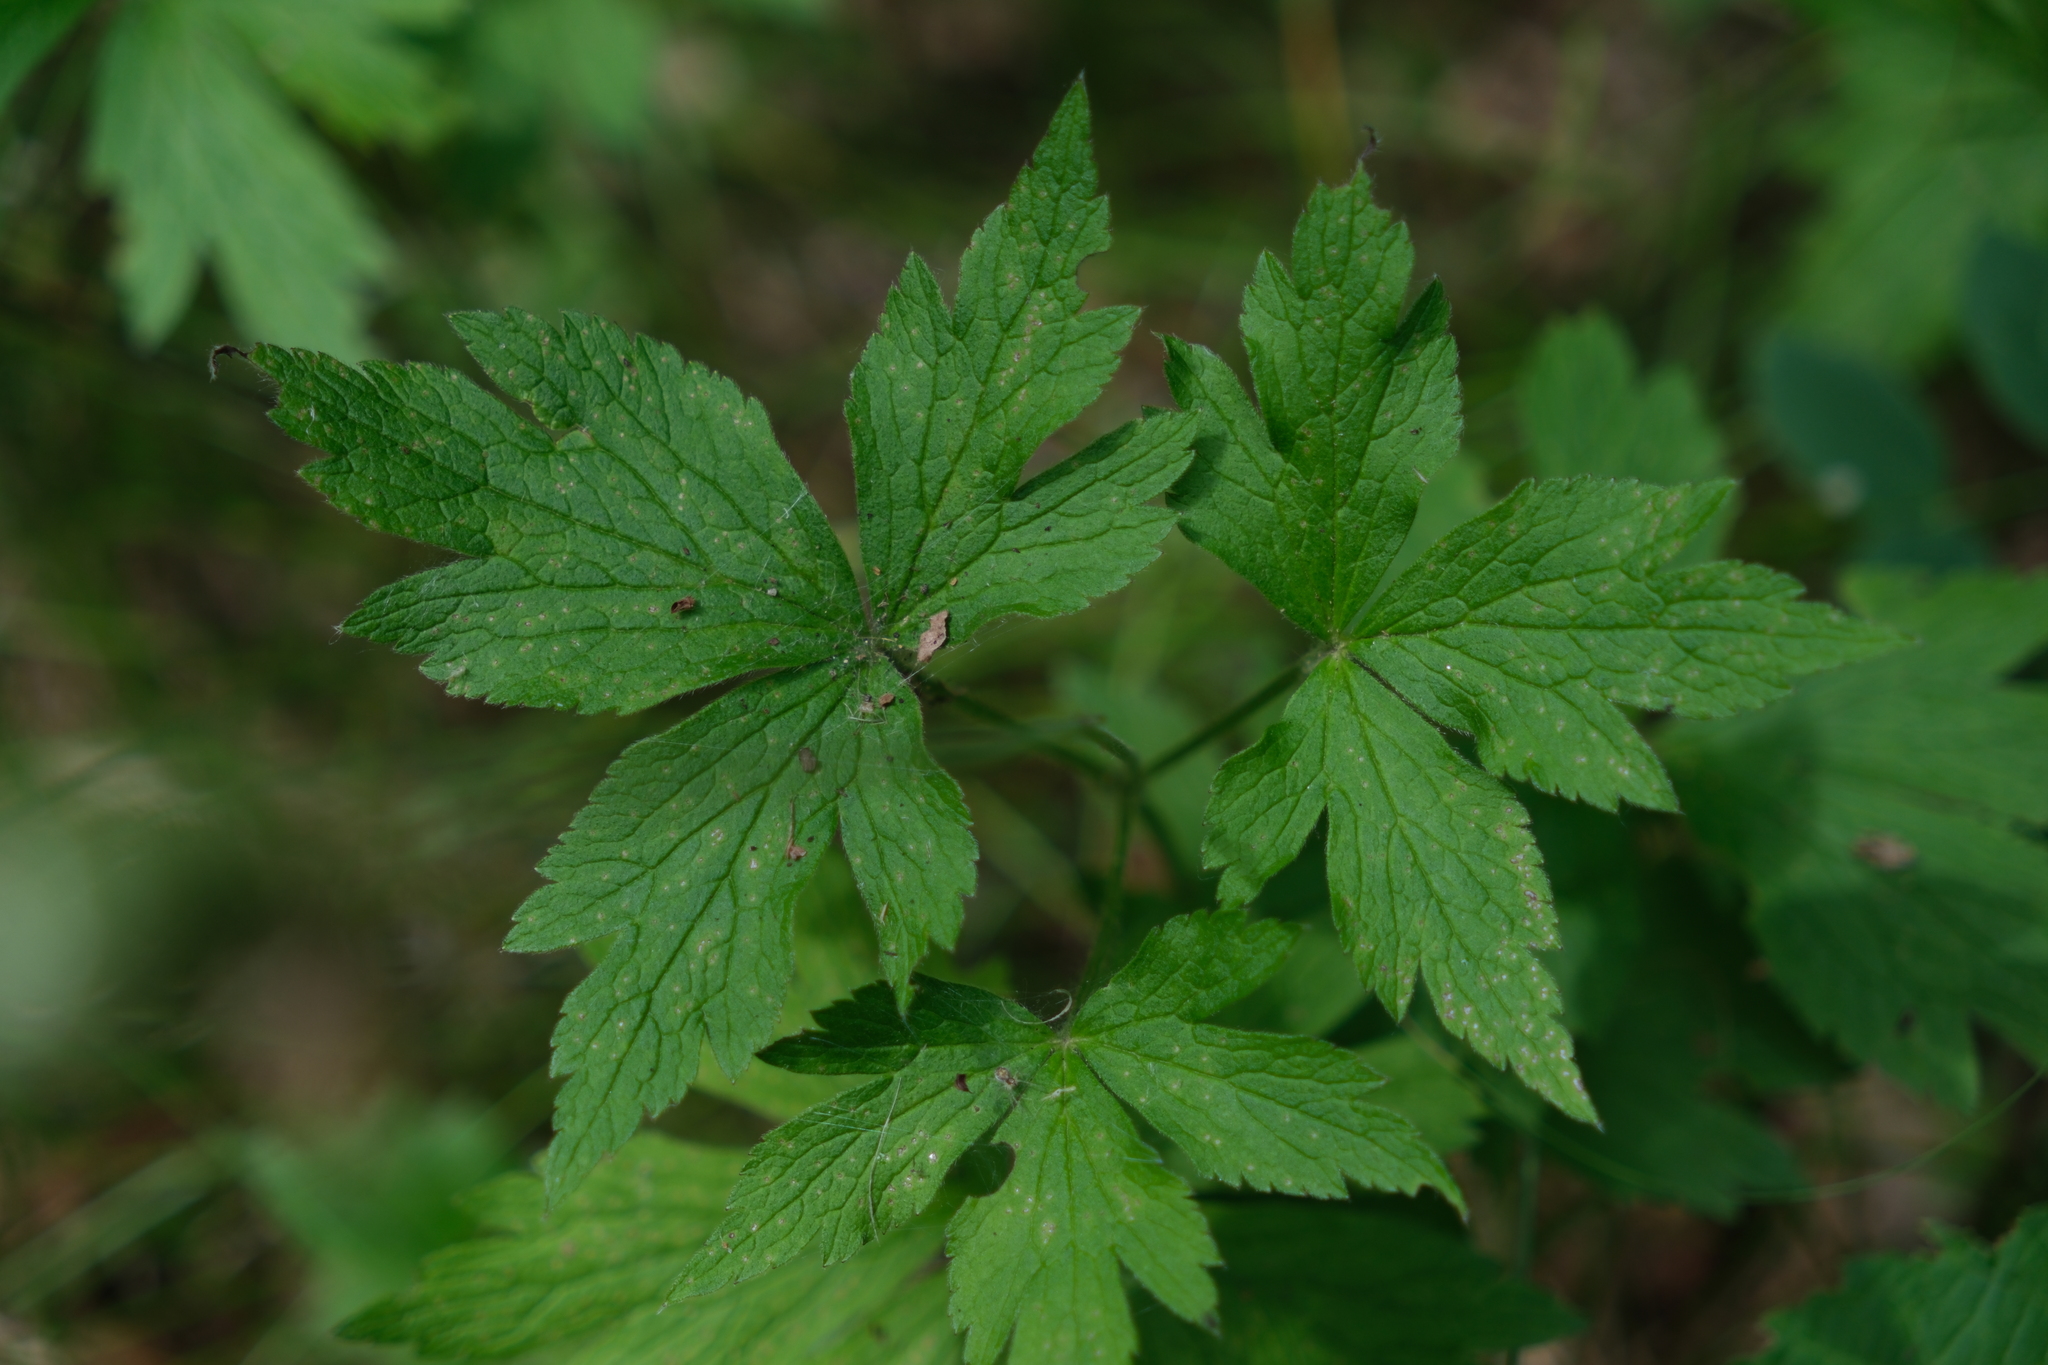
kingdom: Plantae
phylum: Tracheophyta
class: Magnoliopsida
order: Ranunculales
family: Ranunculaceae
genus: Anemone
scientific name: Anemone virginiana
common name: Tall anemone
